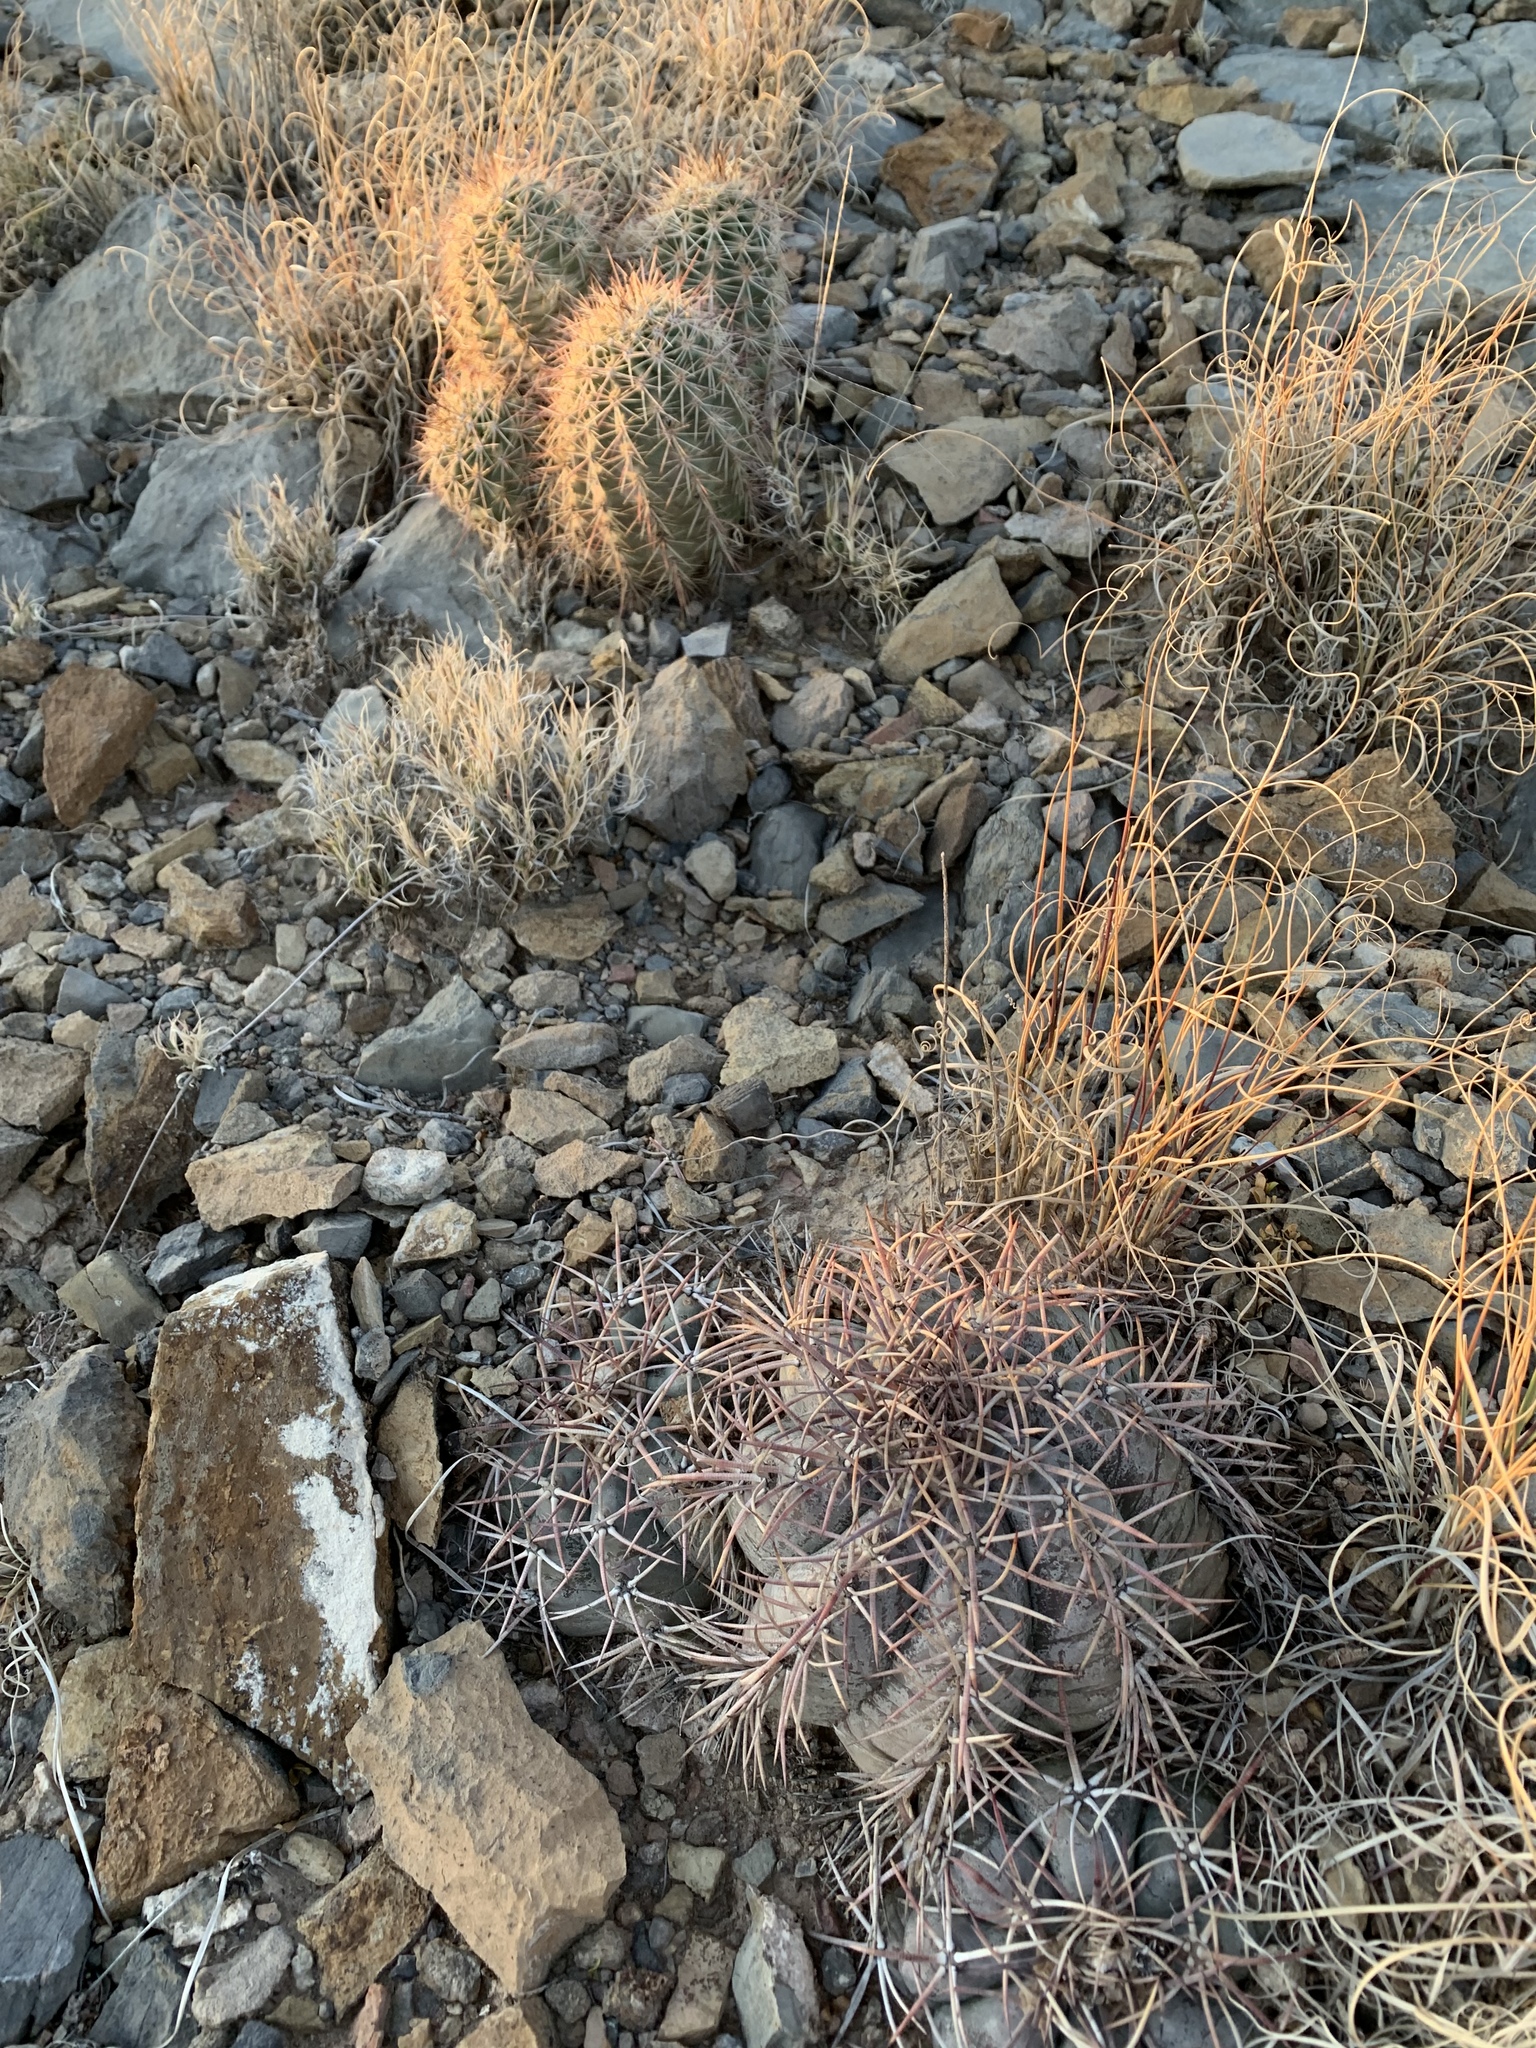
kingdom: Plantae
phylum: Tracheophyta
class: Magnoliopsida
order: Caryophyllales
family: Cactaceae
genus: Echinocereus
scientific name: Echinocereus coccineus
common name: Scarlet hedgehog cactus
